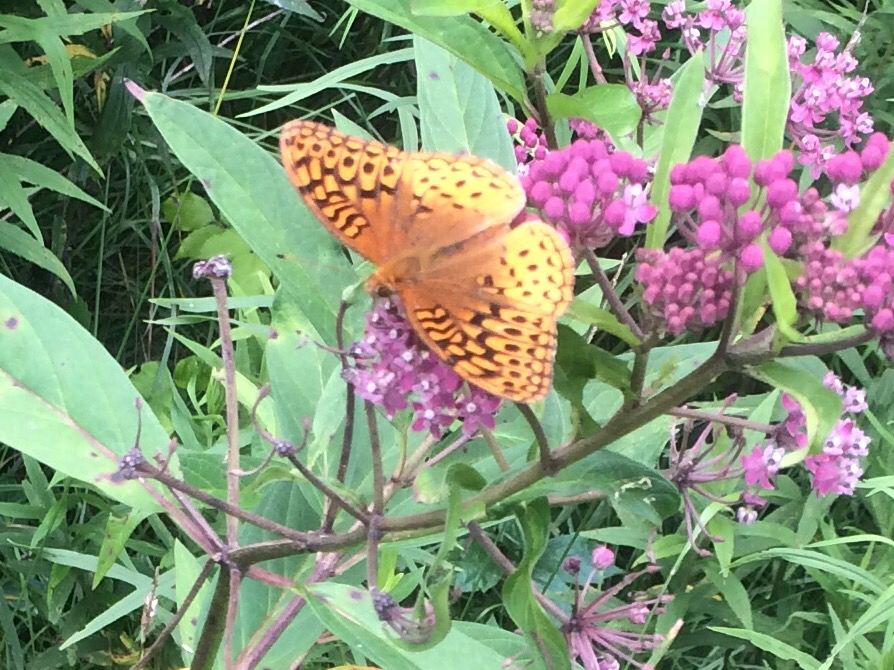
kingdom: Animalia
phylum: Arthropoda
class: Insecta
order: Lepidoptera
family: Nymphalidae
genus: Speyeria
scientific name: Speyeria cybele
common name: Great spangled fritillary
